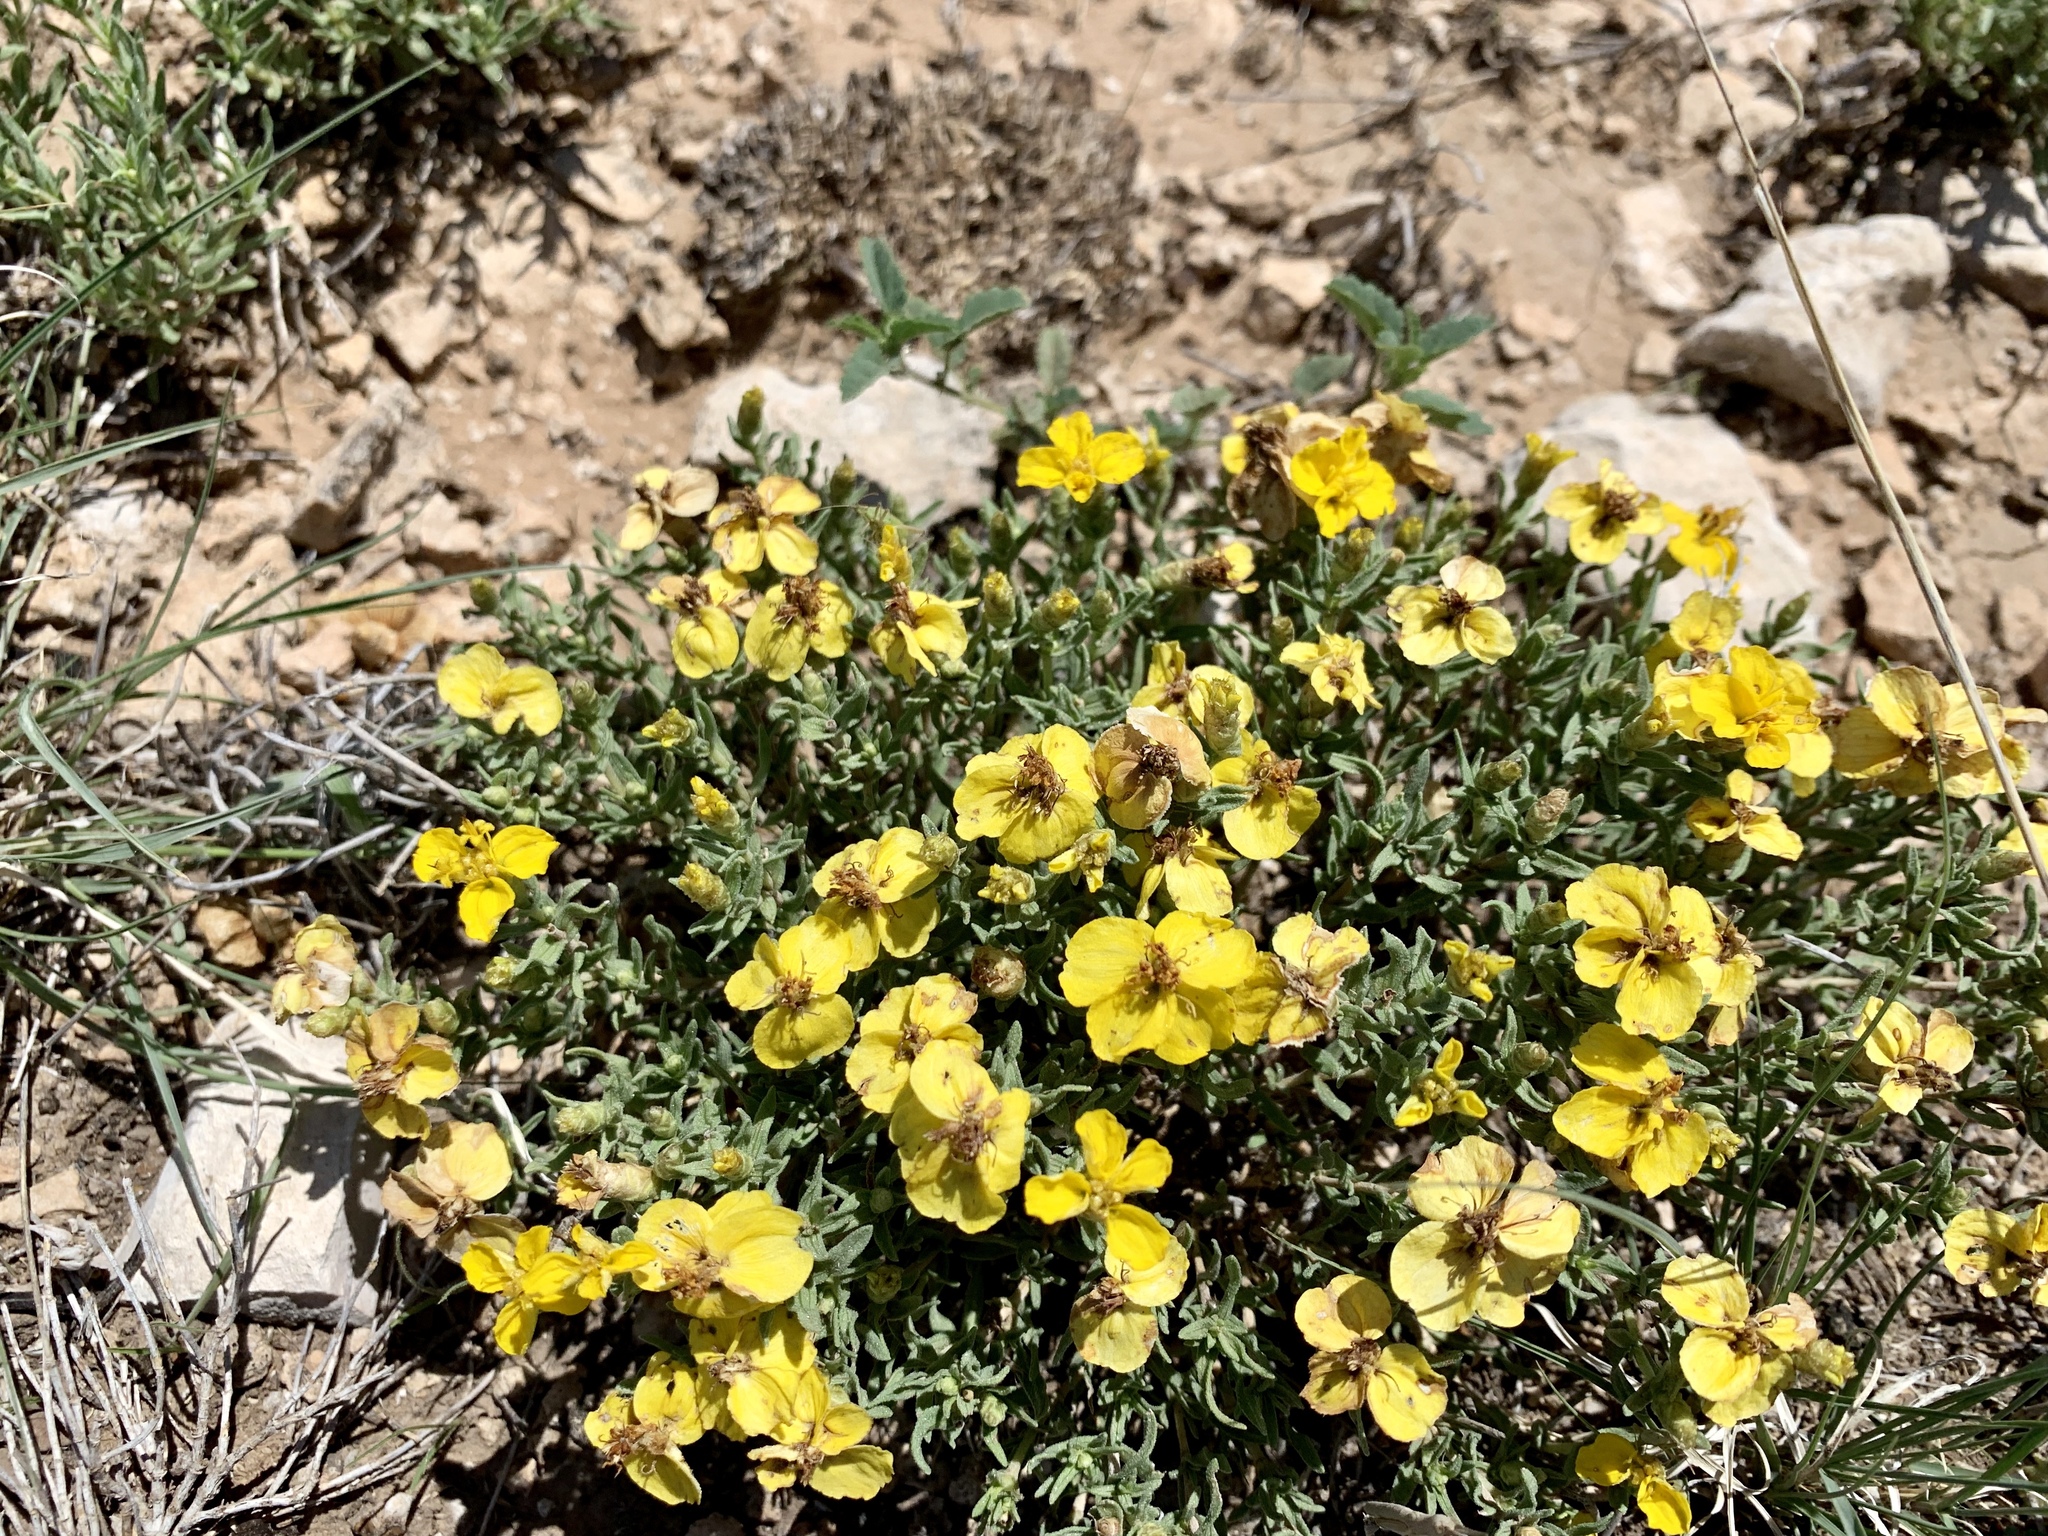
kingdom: Plantae
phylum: Tracheophyta
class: Magnoliopsida
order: Asterales
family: Asteraceae
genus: Zinnia
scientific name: Zinnia grandiflora
